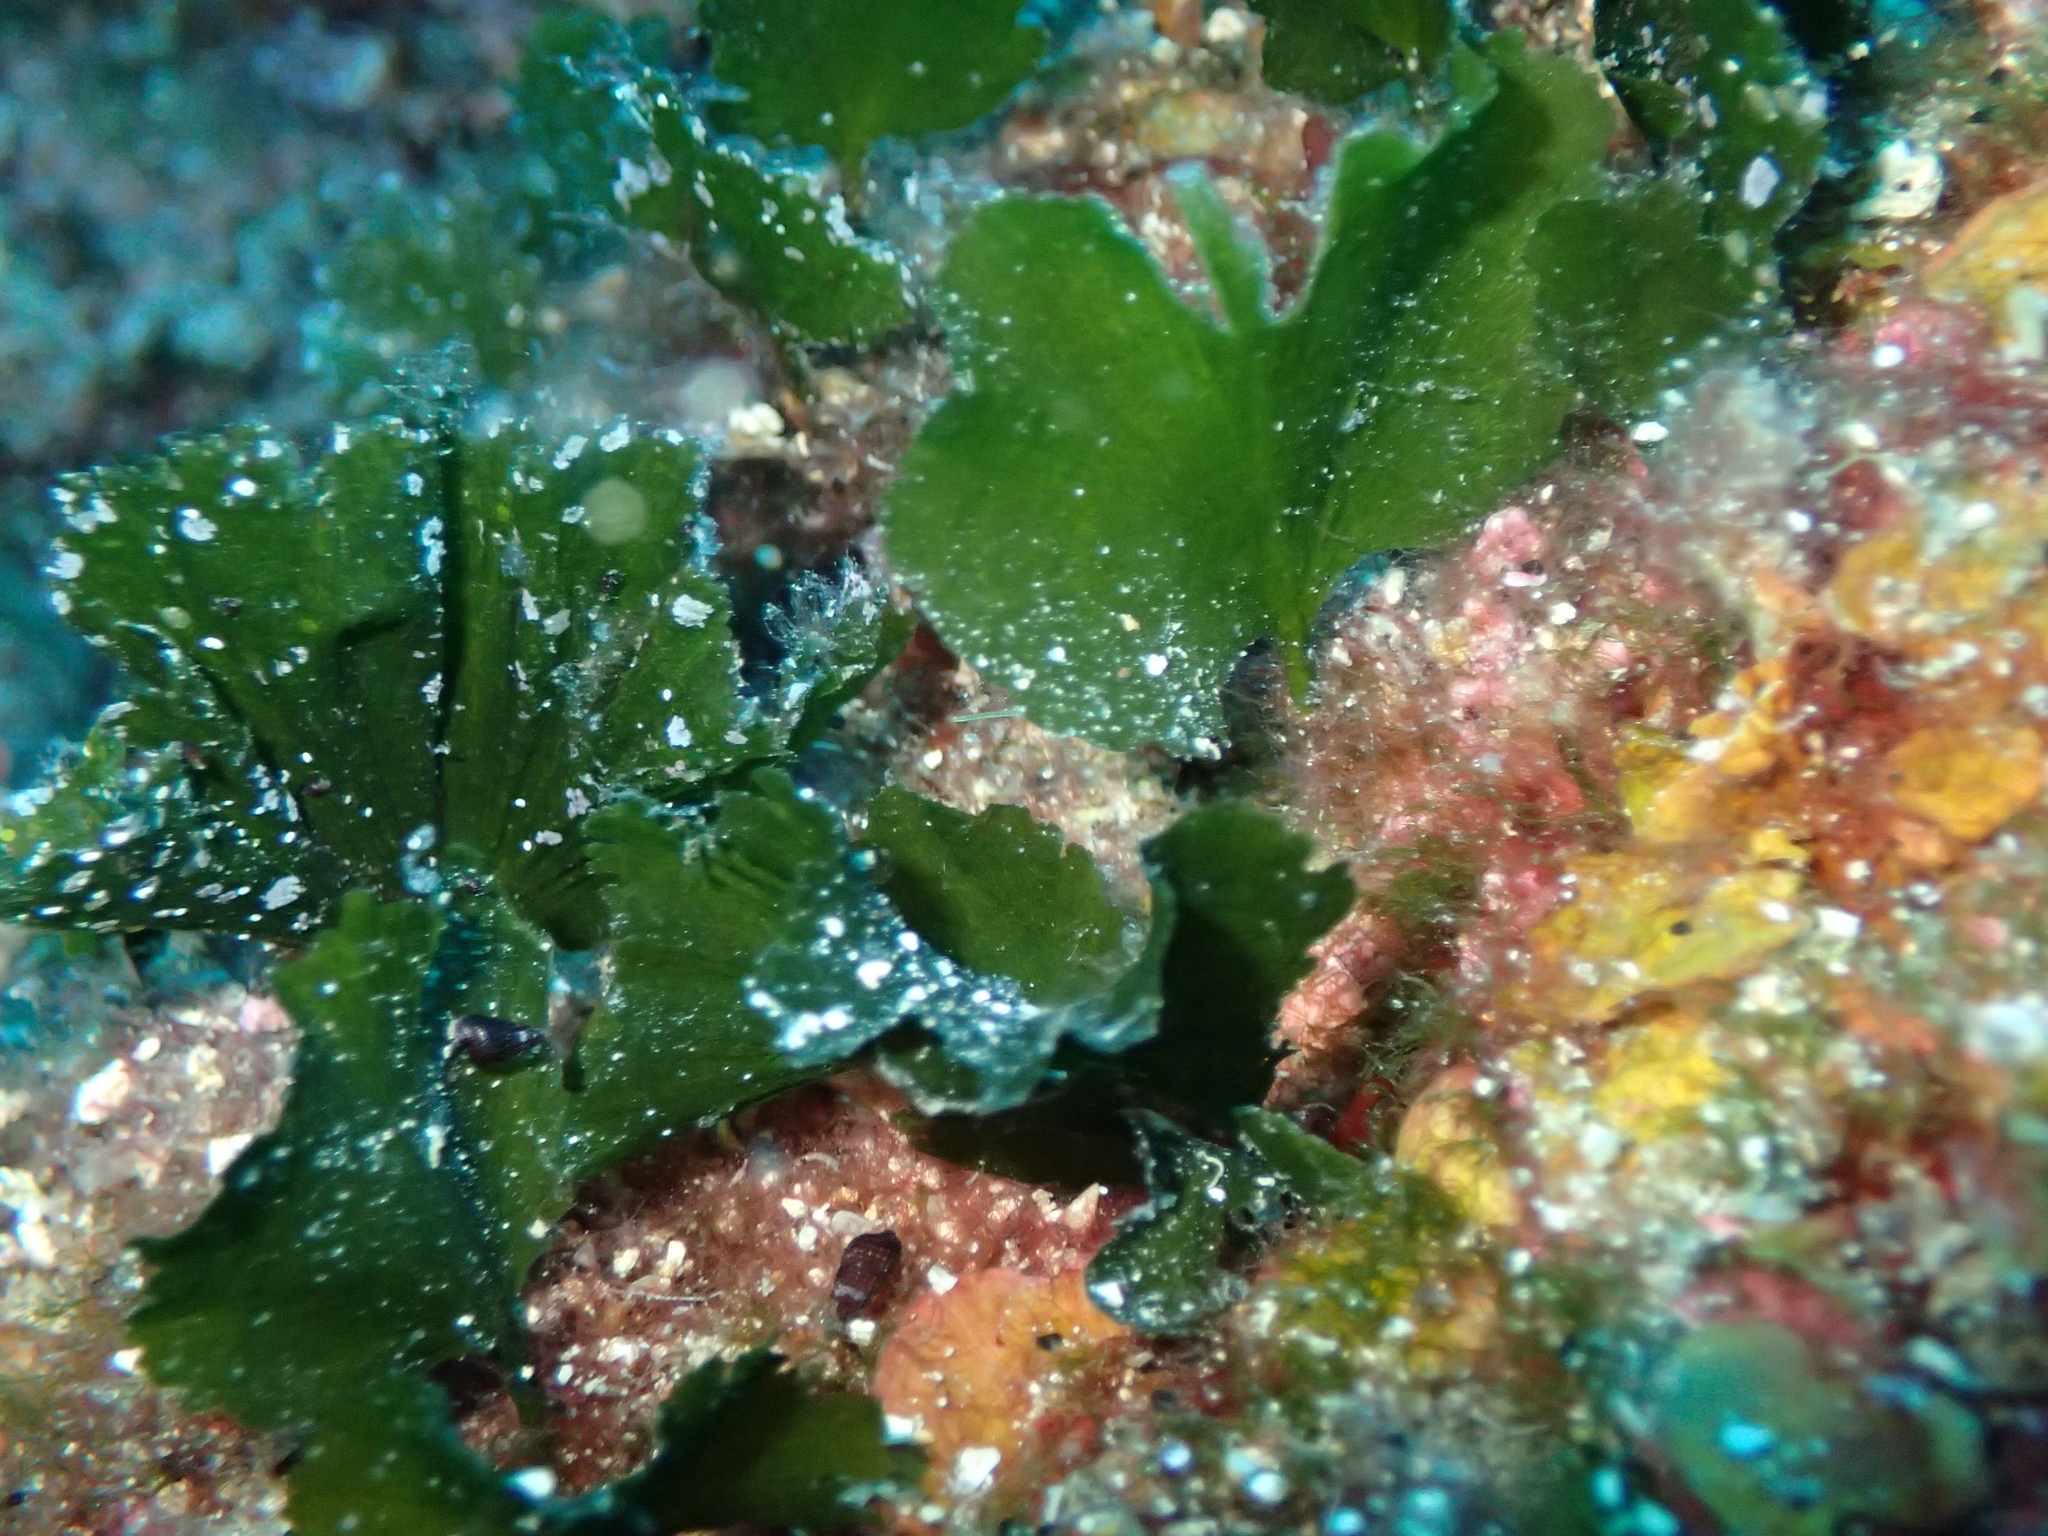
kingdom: Plantae
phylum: Chlorophyta
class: Ulvophyceae
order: Bryopsidales
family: Codiaceae
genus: Codium
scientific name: Codium Flabellia petiolata
